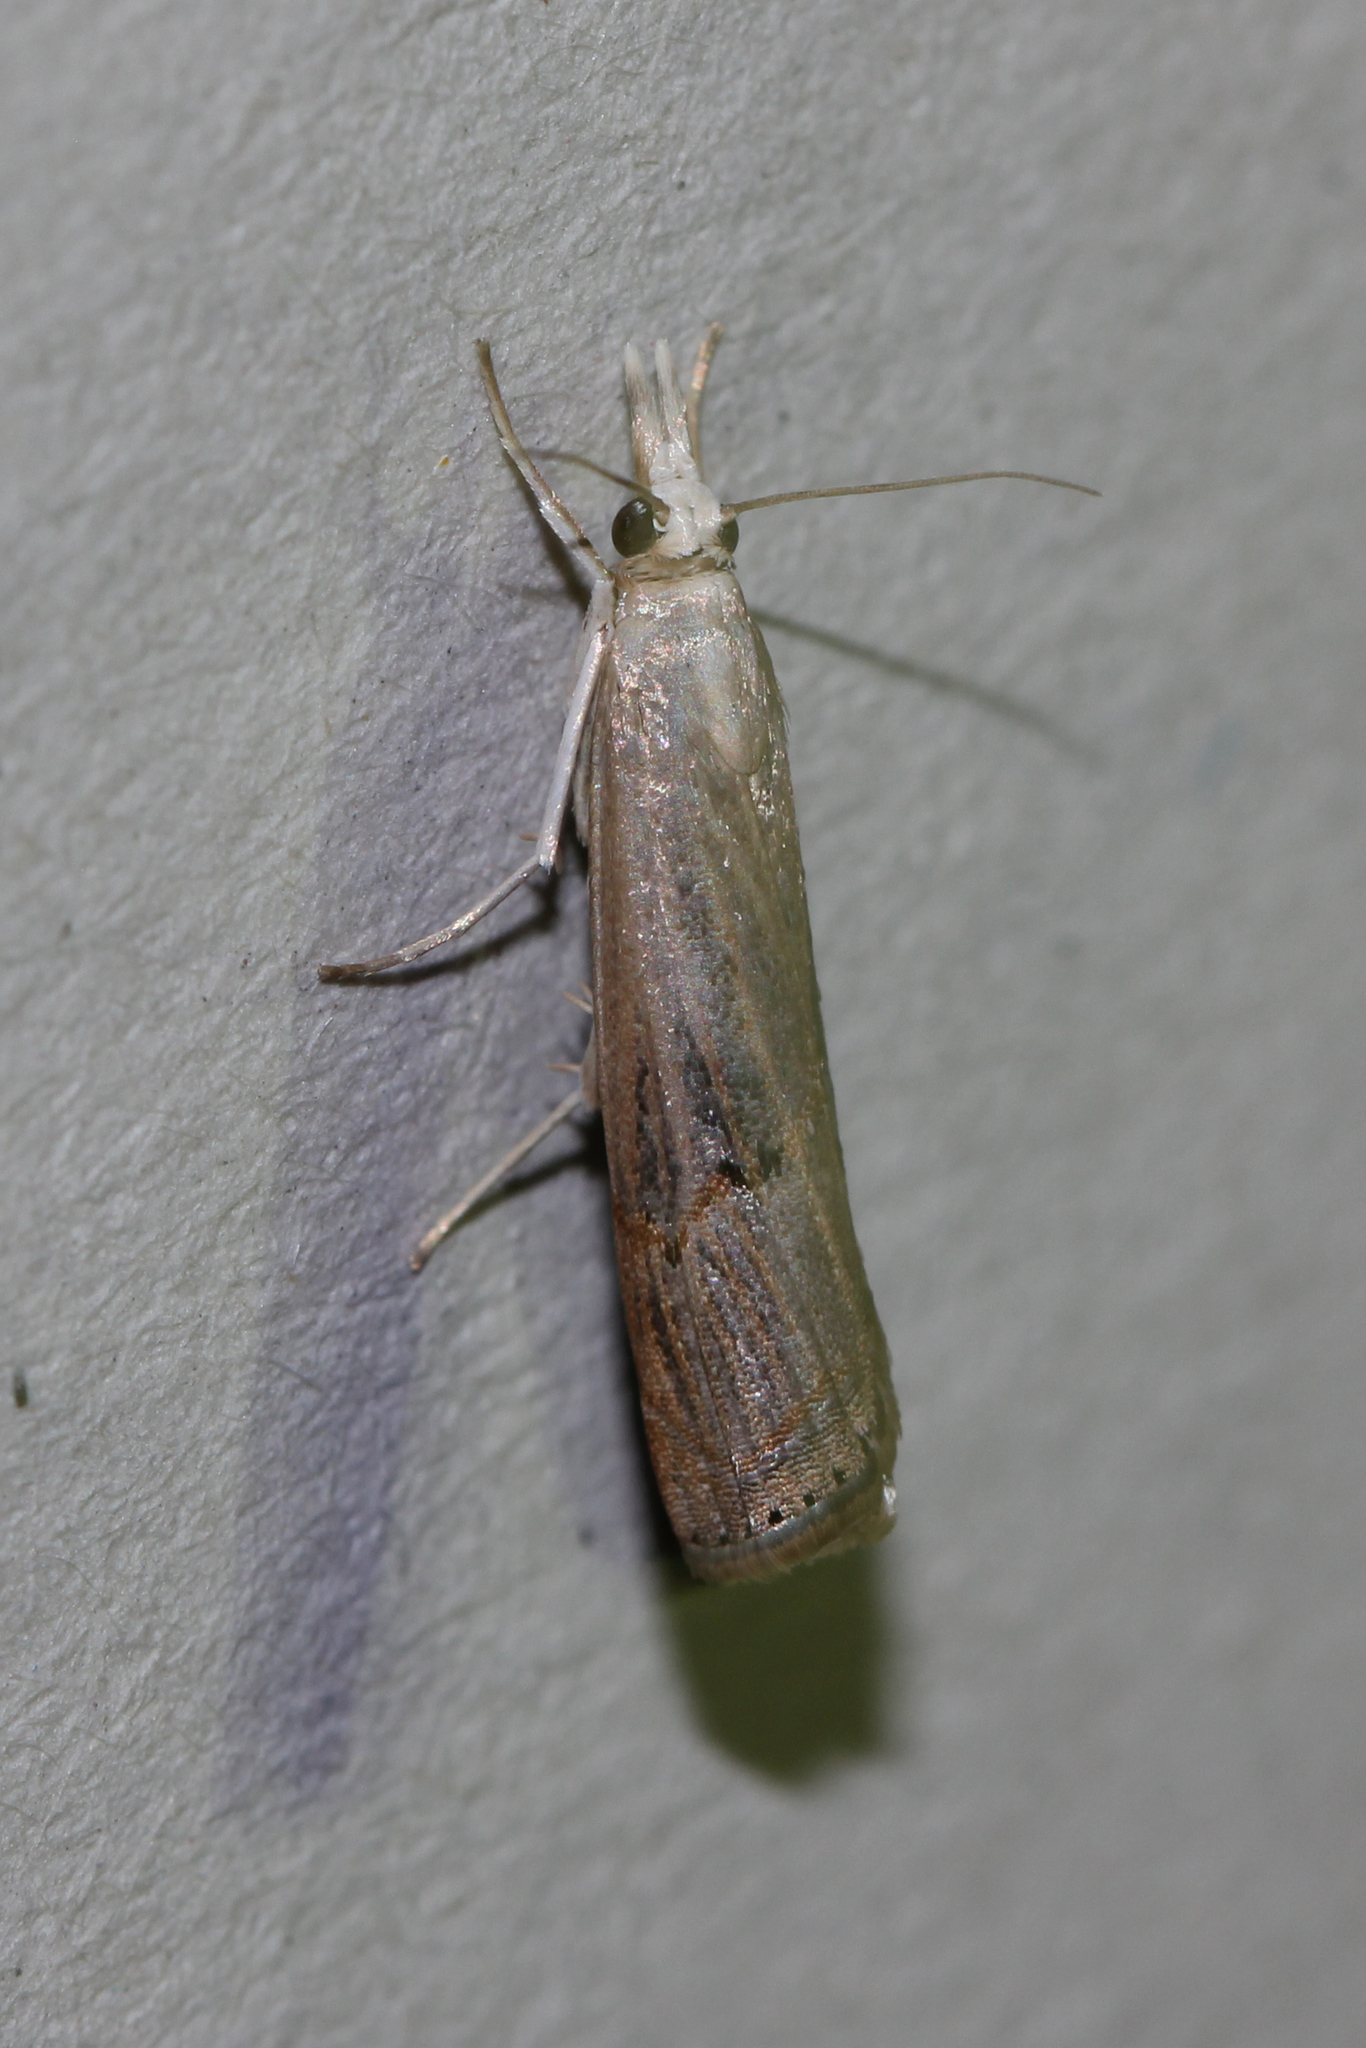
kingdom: Animalia
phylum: Arthropoda
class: Insecta
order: Lepidoptera
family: Crambidae
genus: Parapediasia
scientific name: Parapediasia teterellus
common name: Bluegrass webworm moth
